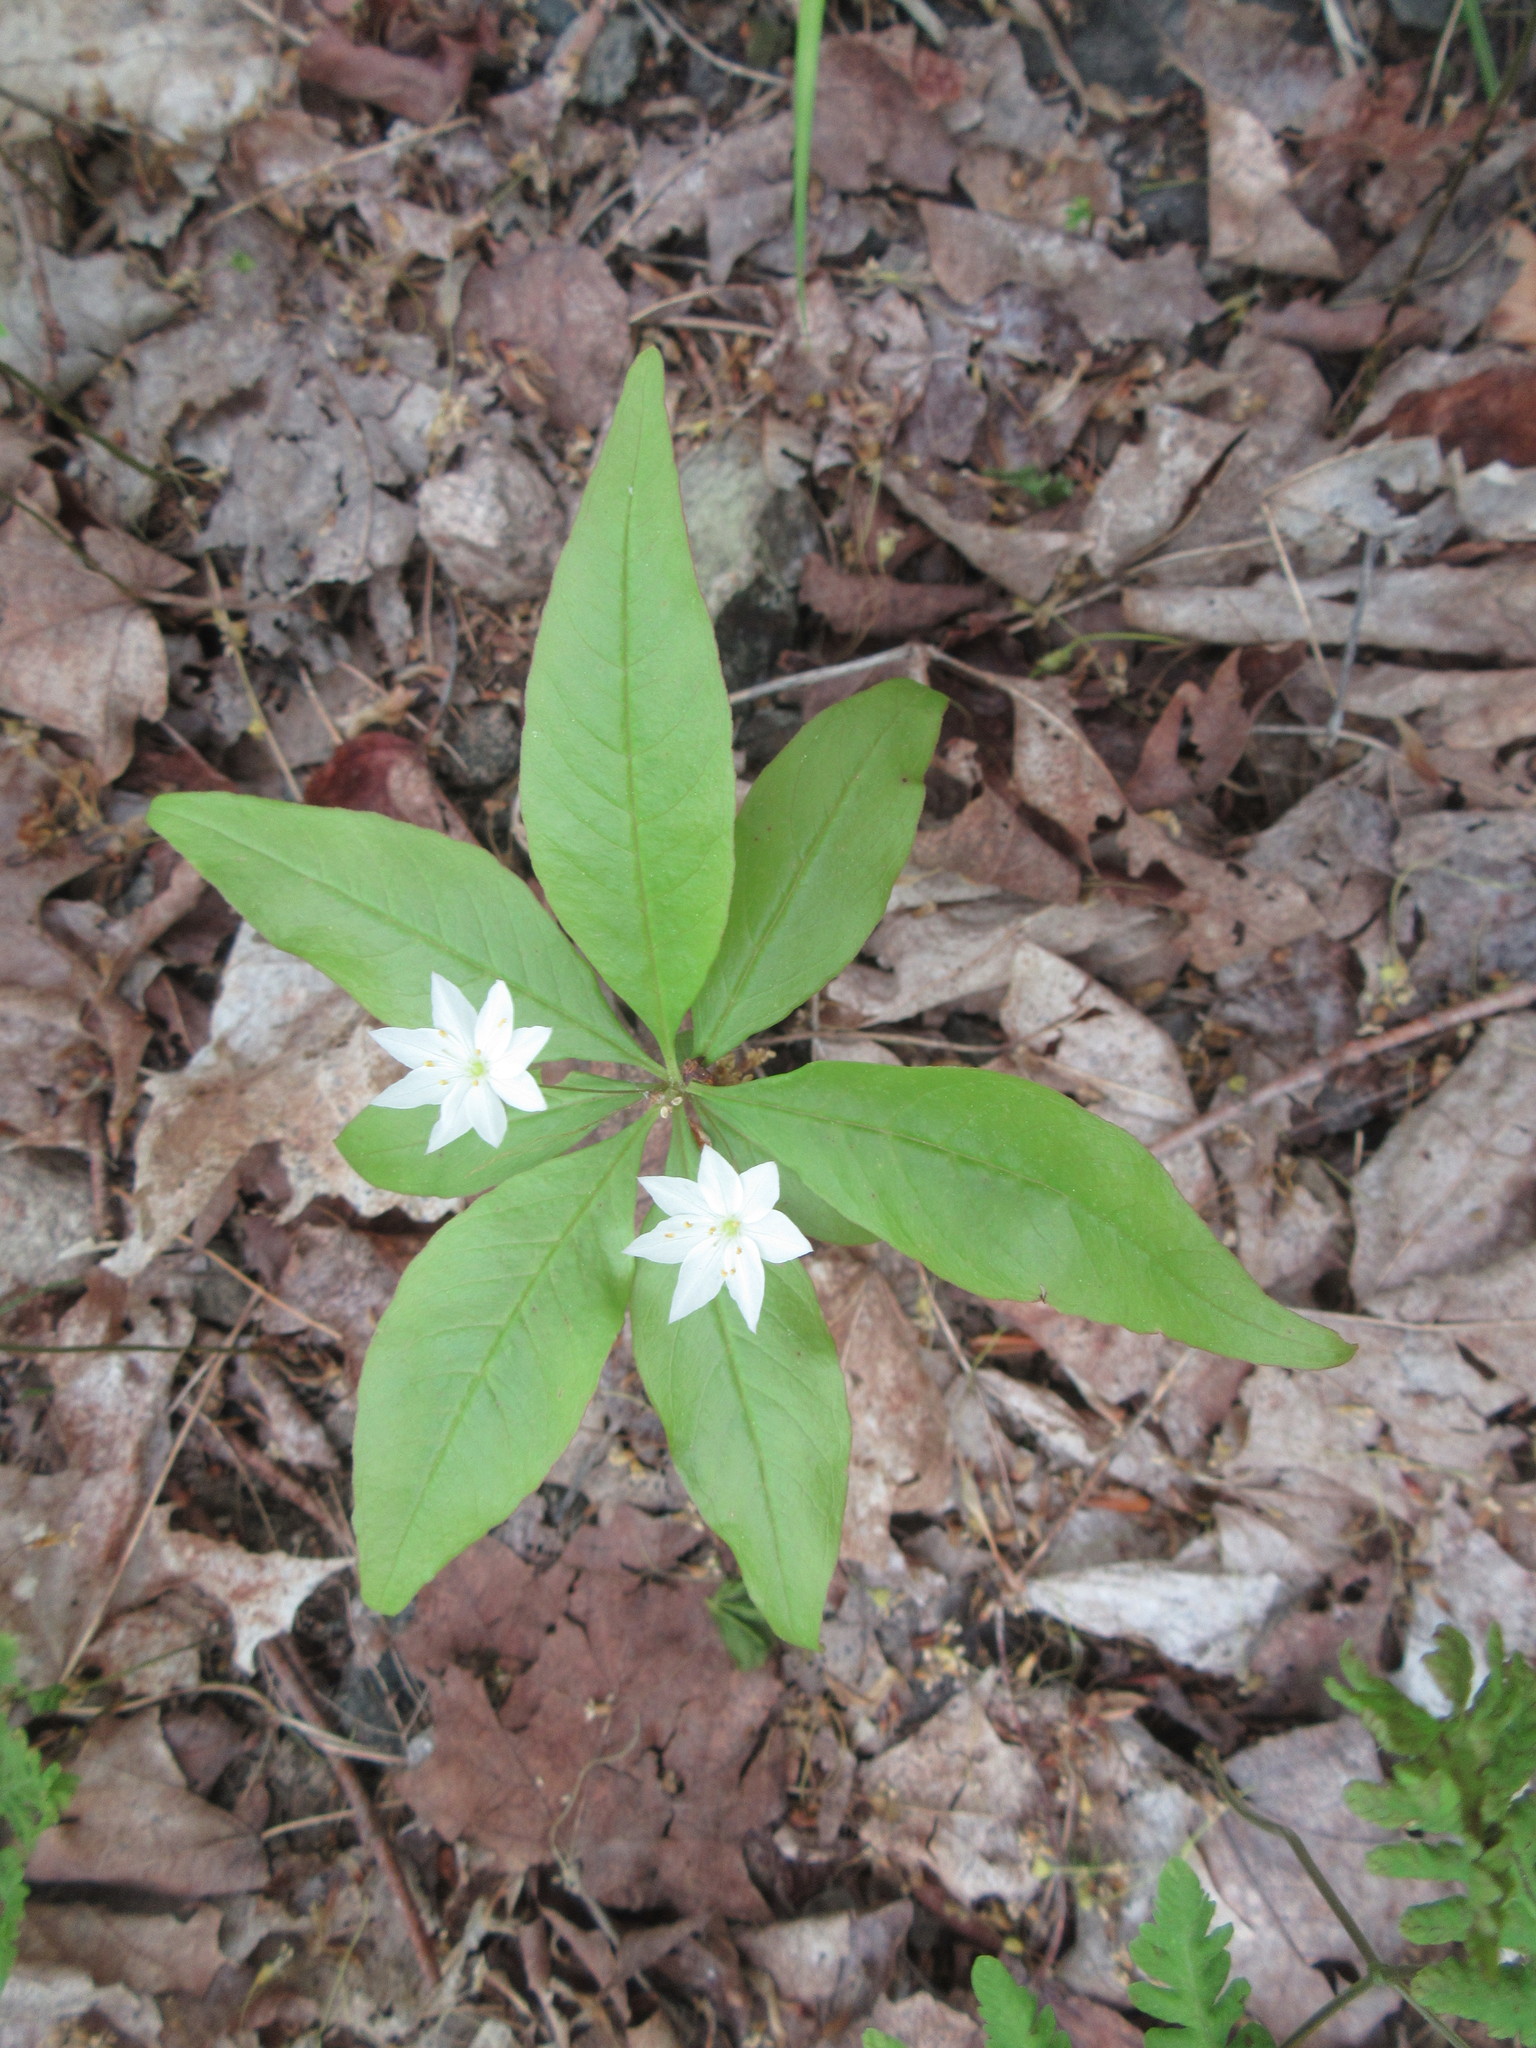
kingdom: Plantae
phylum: Tracheophyta
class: Magnoliopsida
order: Ericales
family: Primulaceae
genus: Lysimachia
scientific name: Lysimachia borealis
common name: American starflower
